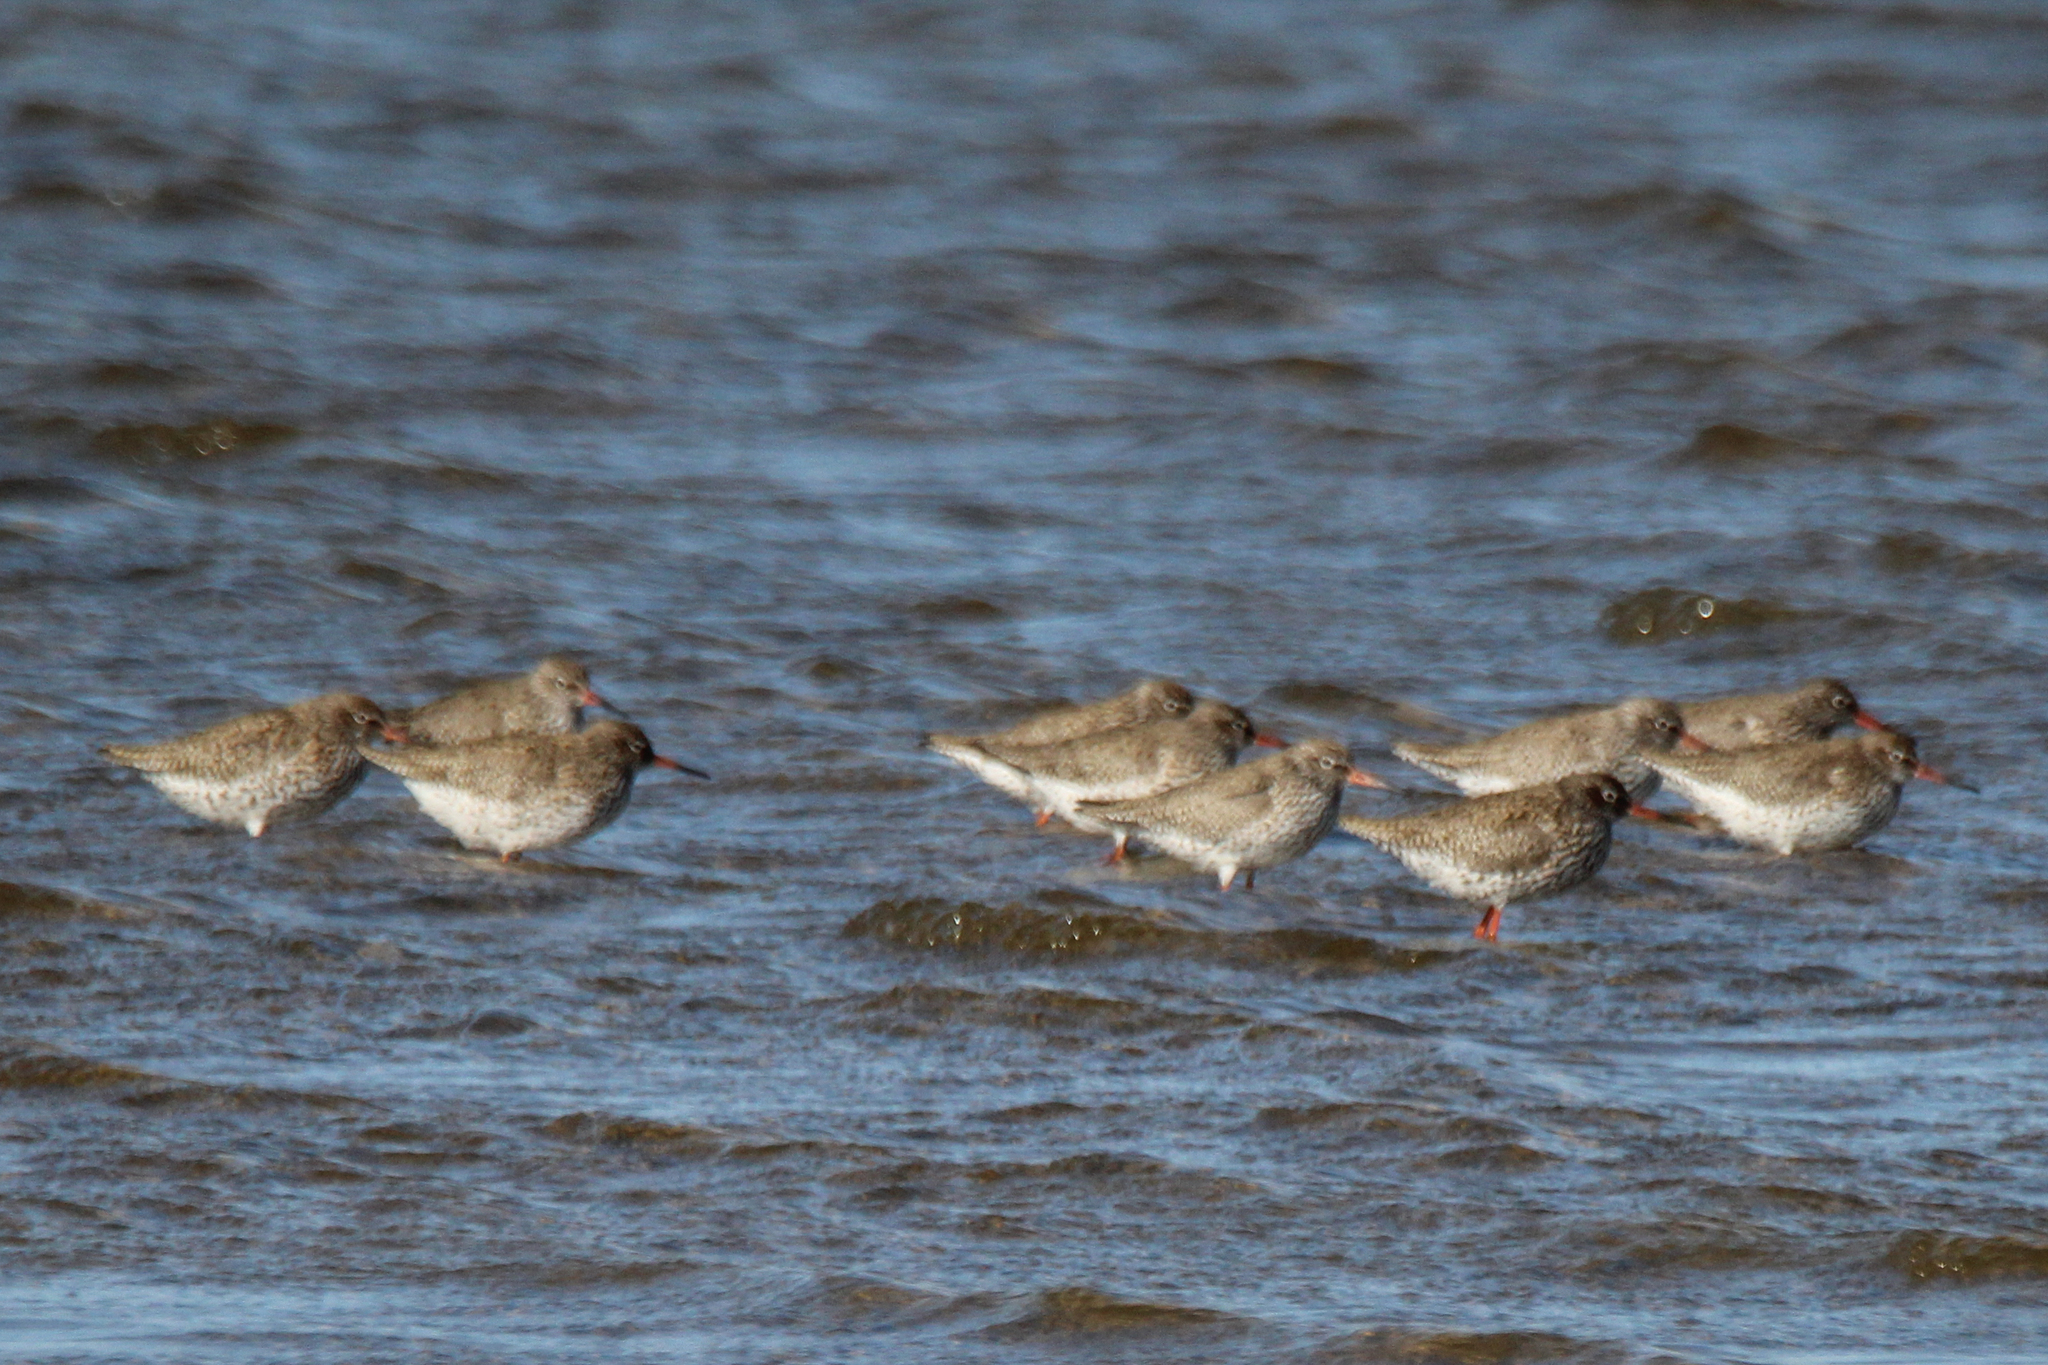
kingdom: Animalia
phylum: Chordata
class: Aves
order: Charadriiformes
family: Scolopacidae
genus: Tringa
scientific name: Tringa totanus
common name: Common redshank
